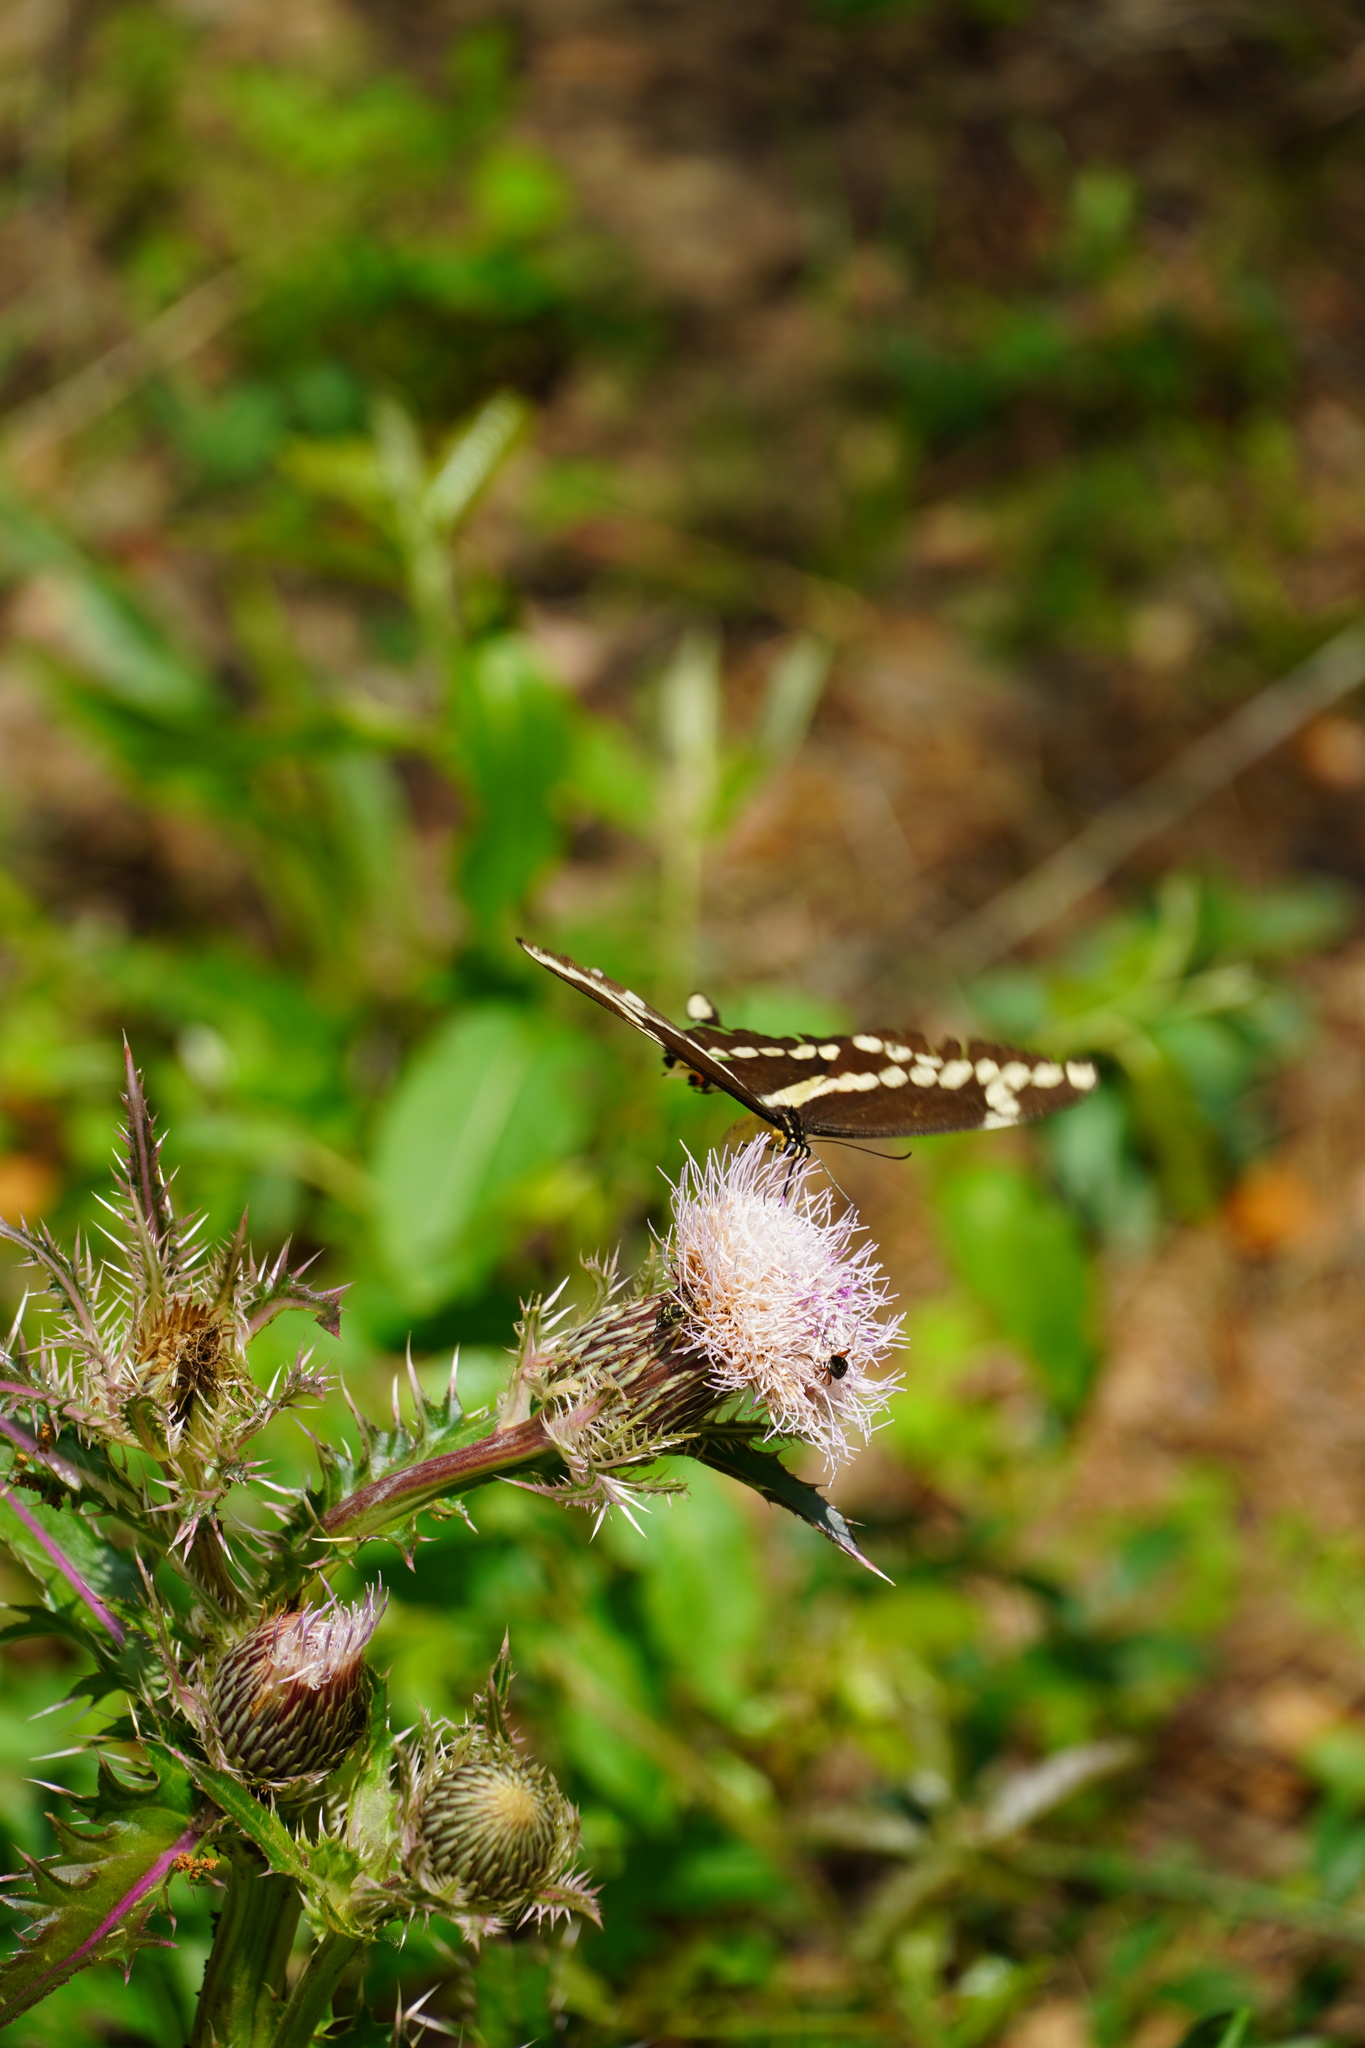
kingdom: Animalia
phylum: Arthropoda
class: Insecta
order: Lepidoptera
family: Papilionidae
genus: Papilio
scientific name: Papilio cresphontes
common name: Giant swallowtail
